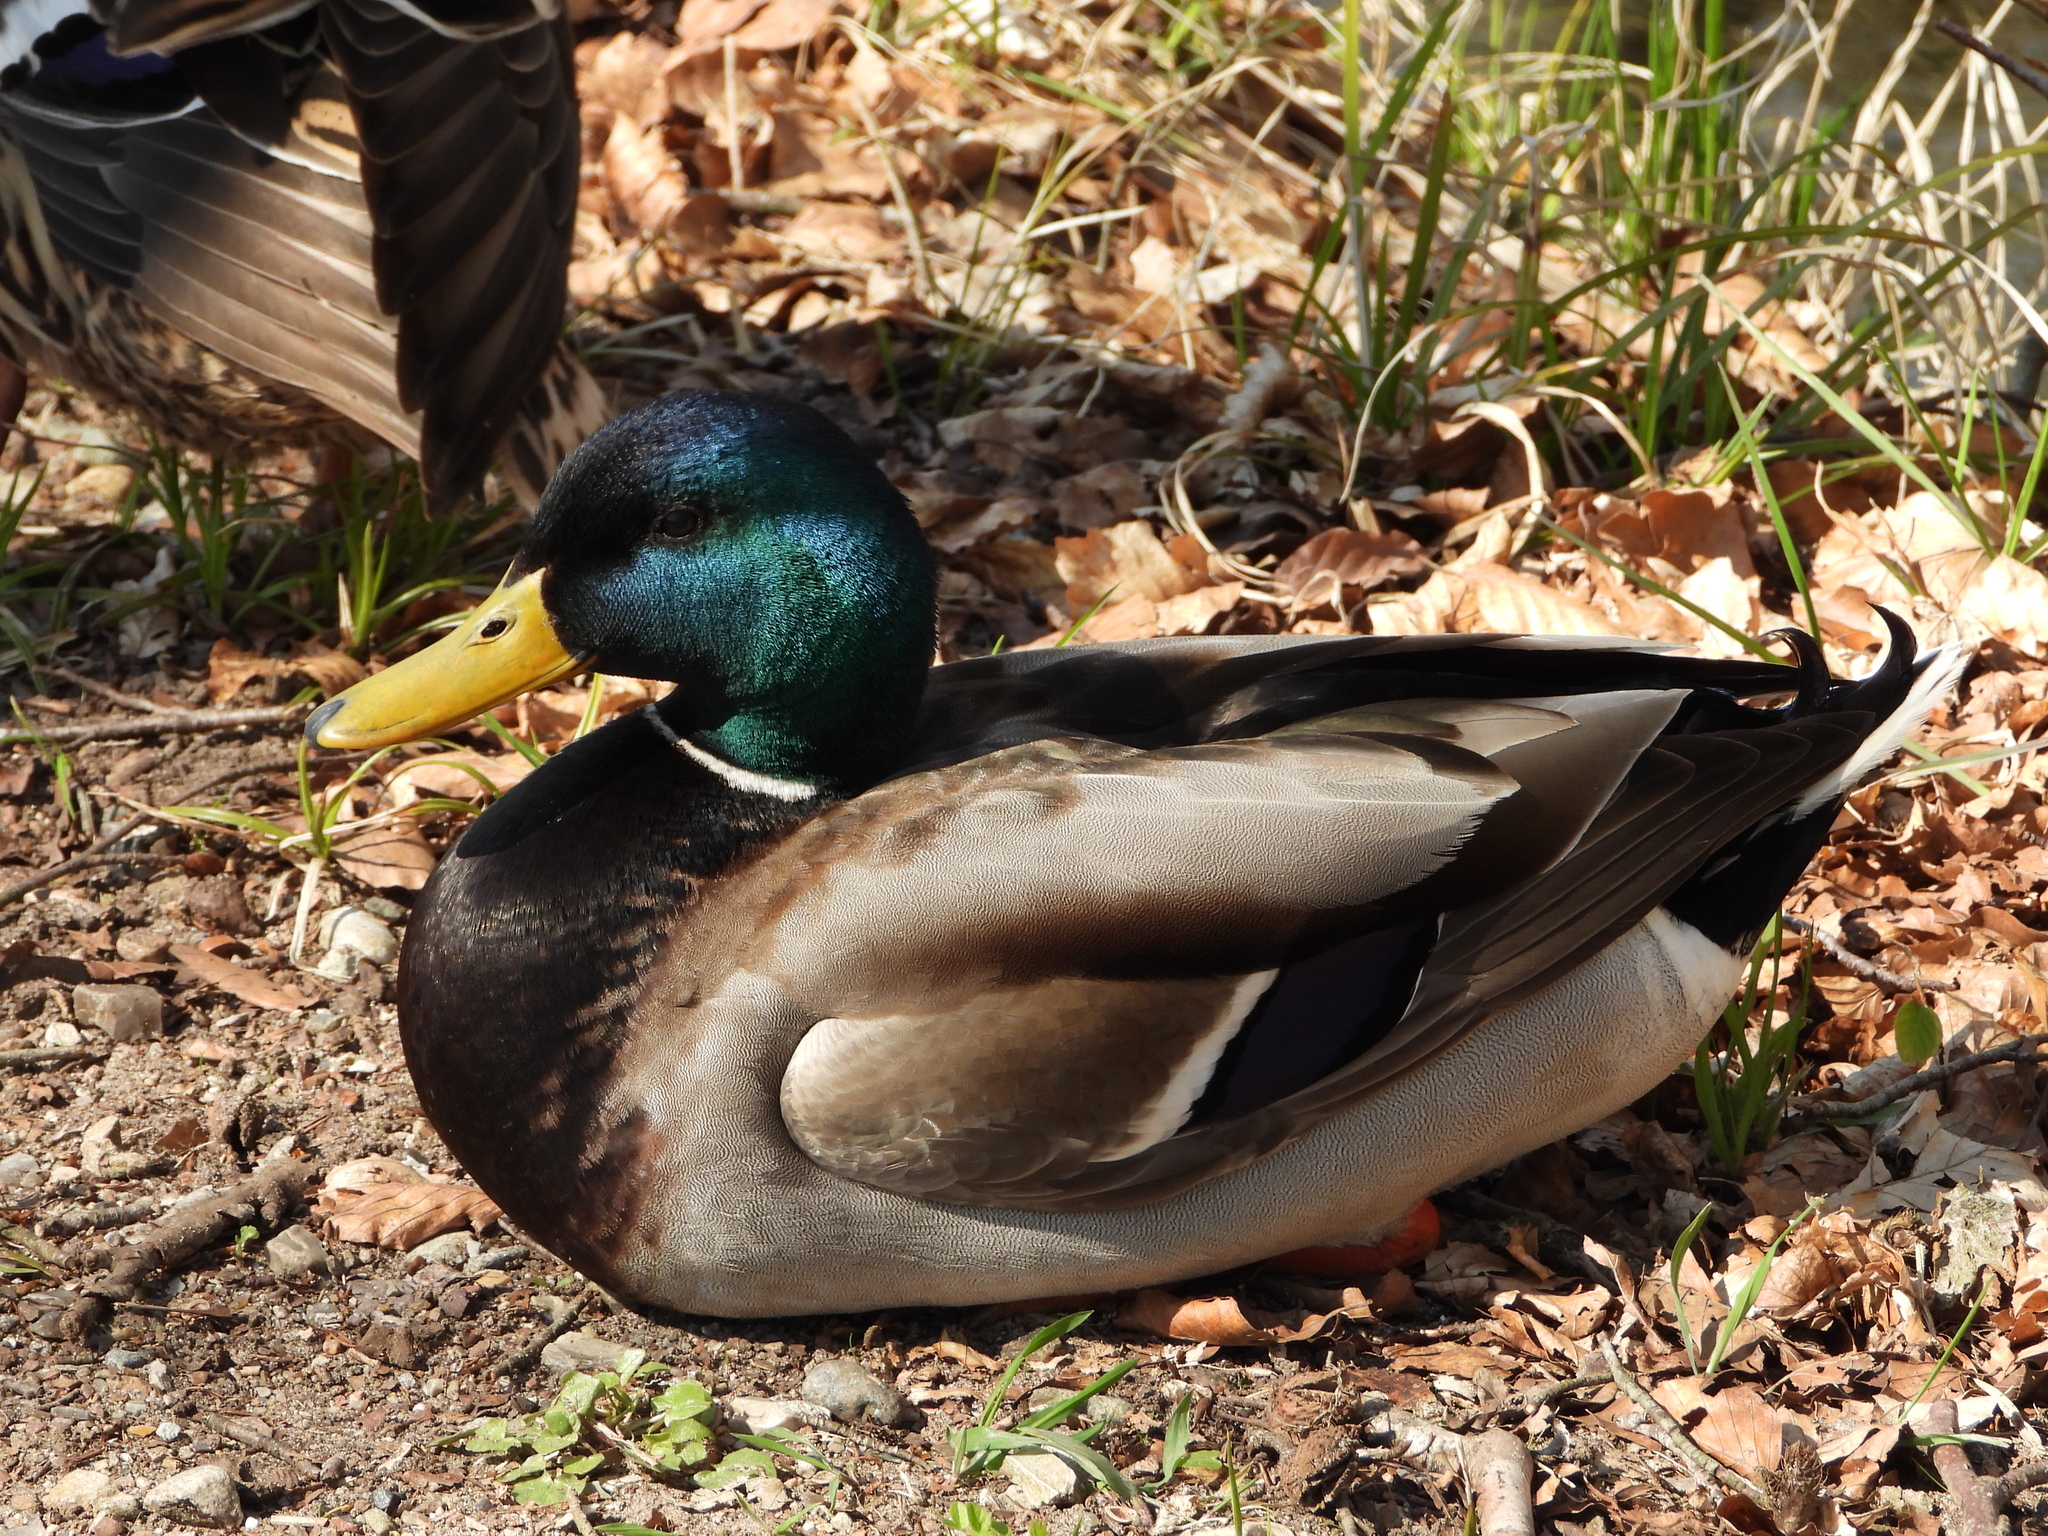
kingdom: Animalia
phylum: Chordata
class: Aves
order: Anseriformes
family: Anatidae
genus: Anas
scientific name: Anas platyrhynchos
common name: Mallard
